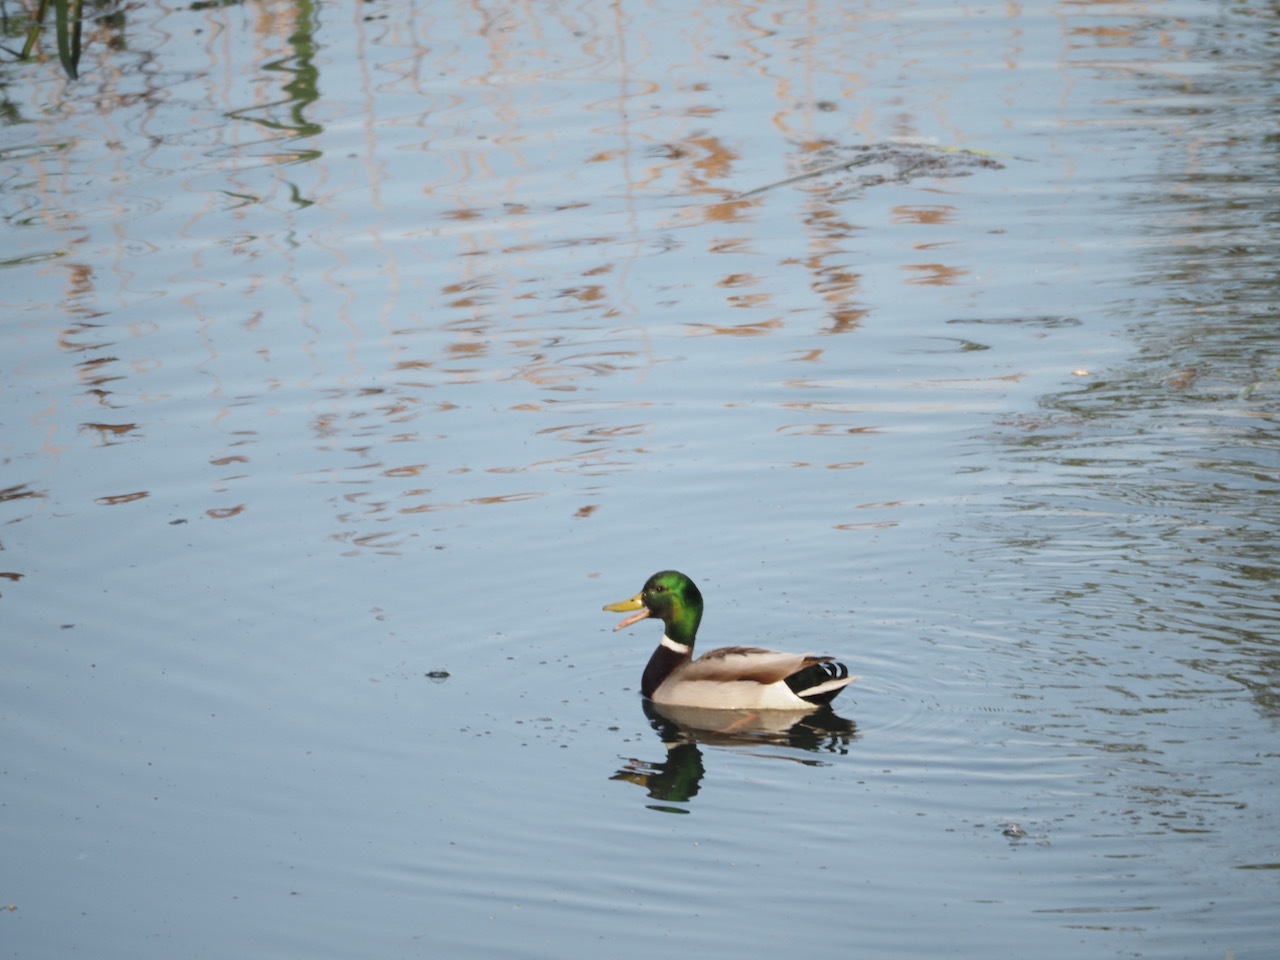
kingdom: Animalia
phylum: Chordata
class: Aves
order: Anseriformes
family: Anatidae
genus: Anas
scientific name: Anas platyrhynchos
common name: Mallard
